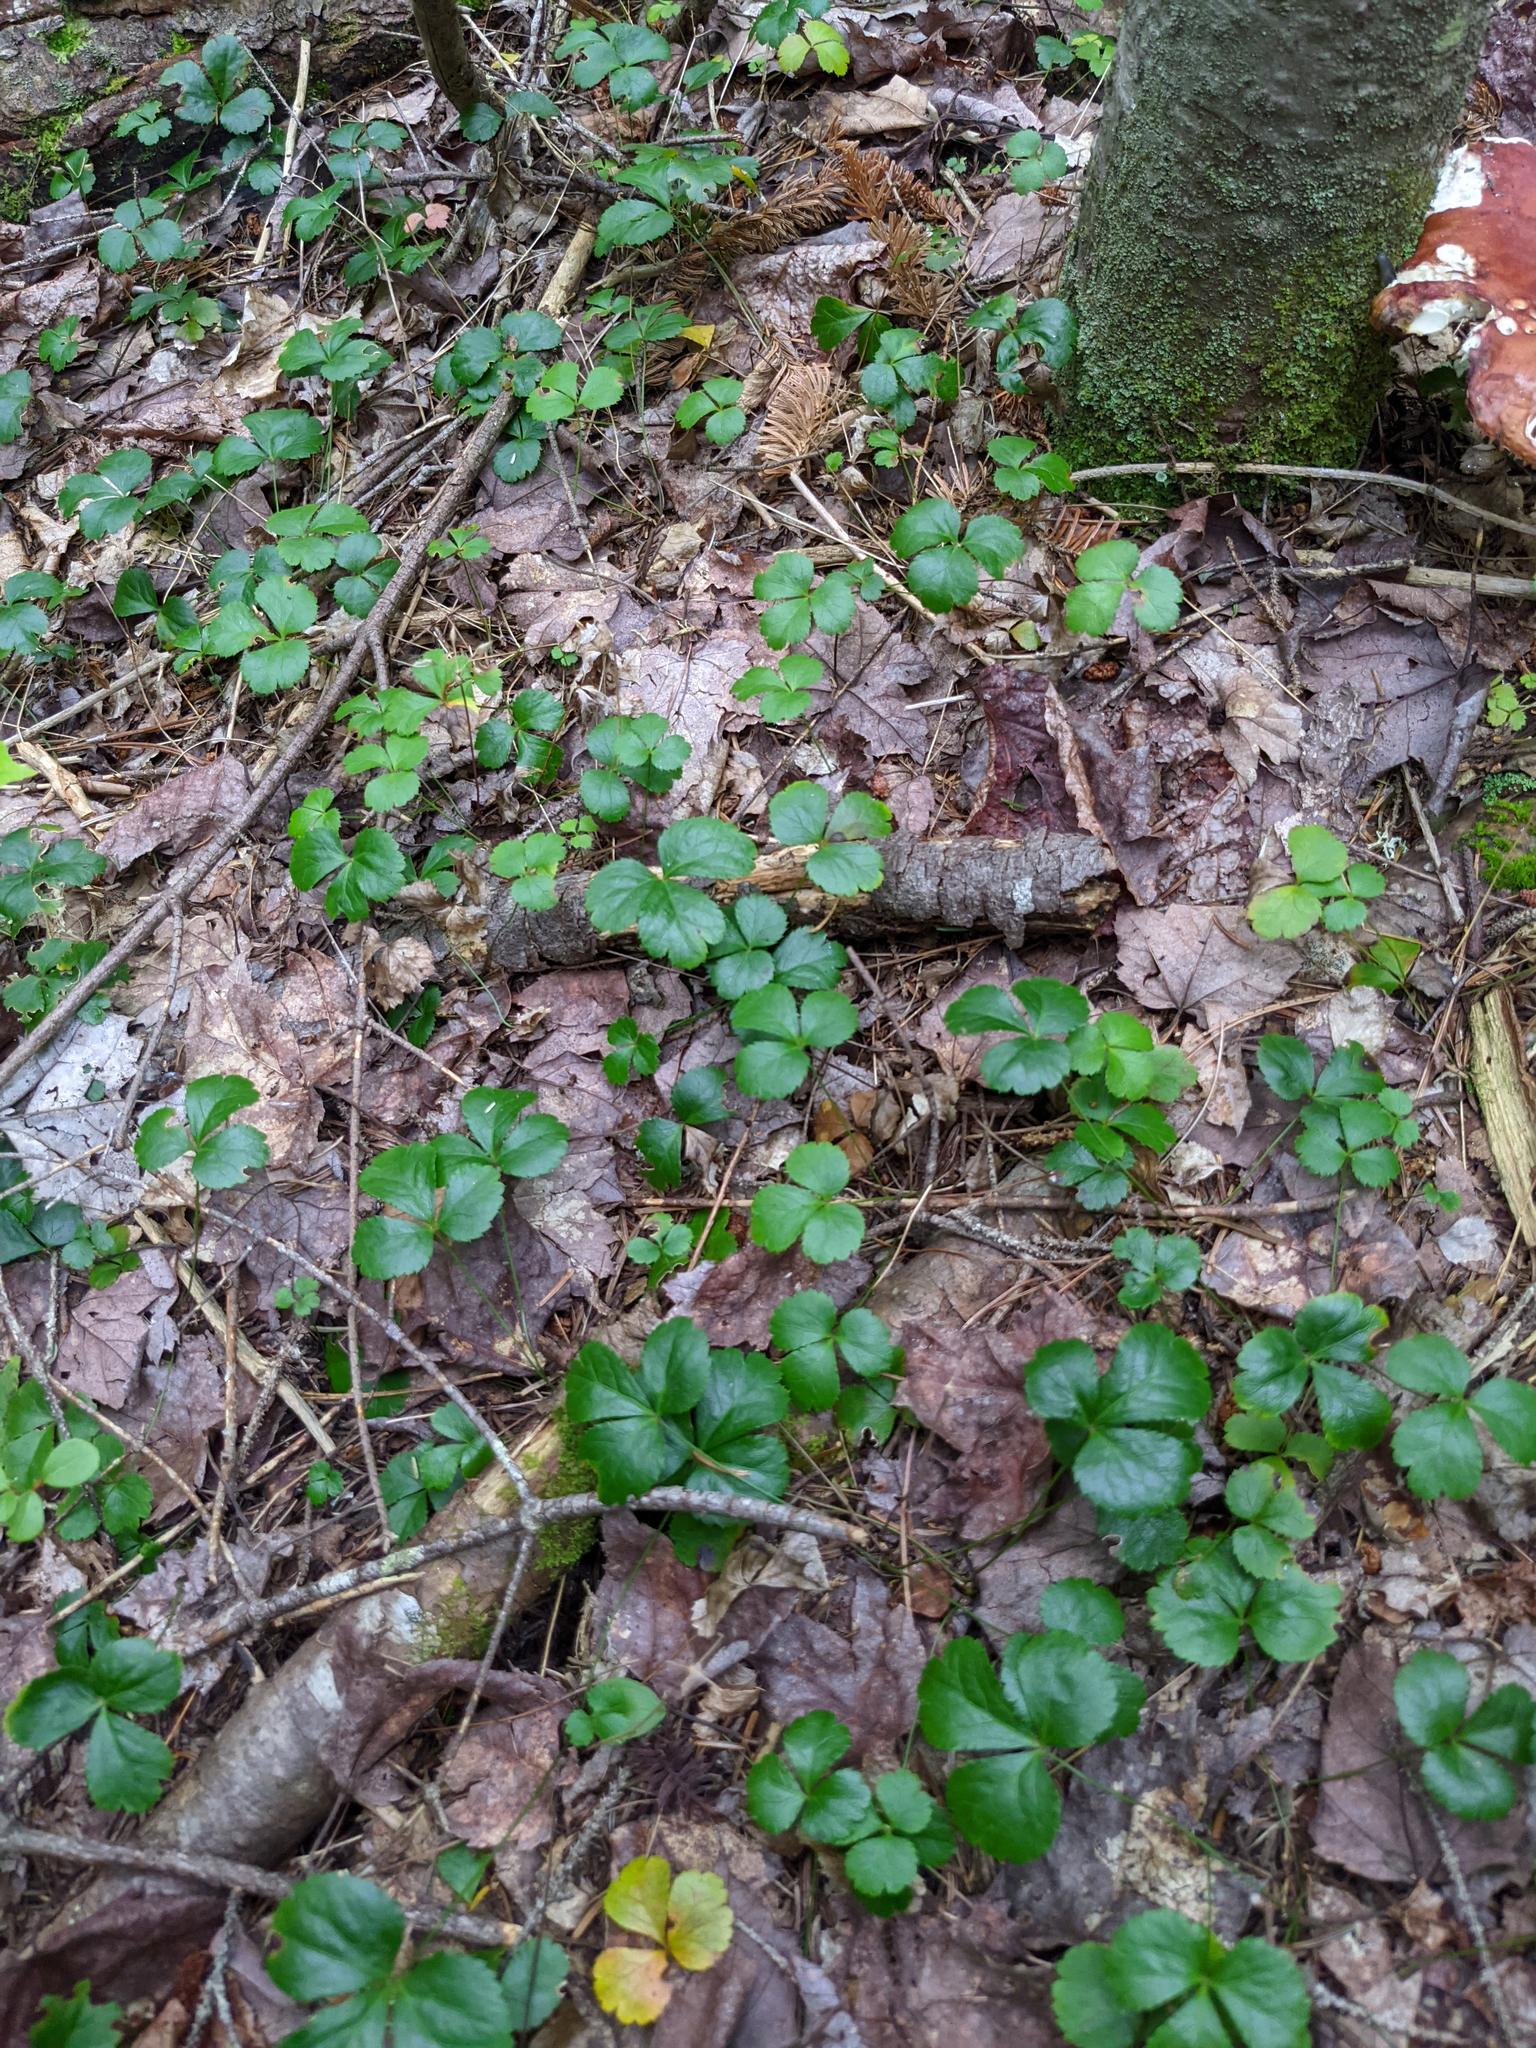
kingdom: Plantae
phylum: Tracheophyta
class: Magnoliopsida
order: Ranunculales
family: Ranunculaceae
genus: Coptis
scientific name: Coptis trifolia
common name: Canker-root
